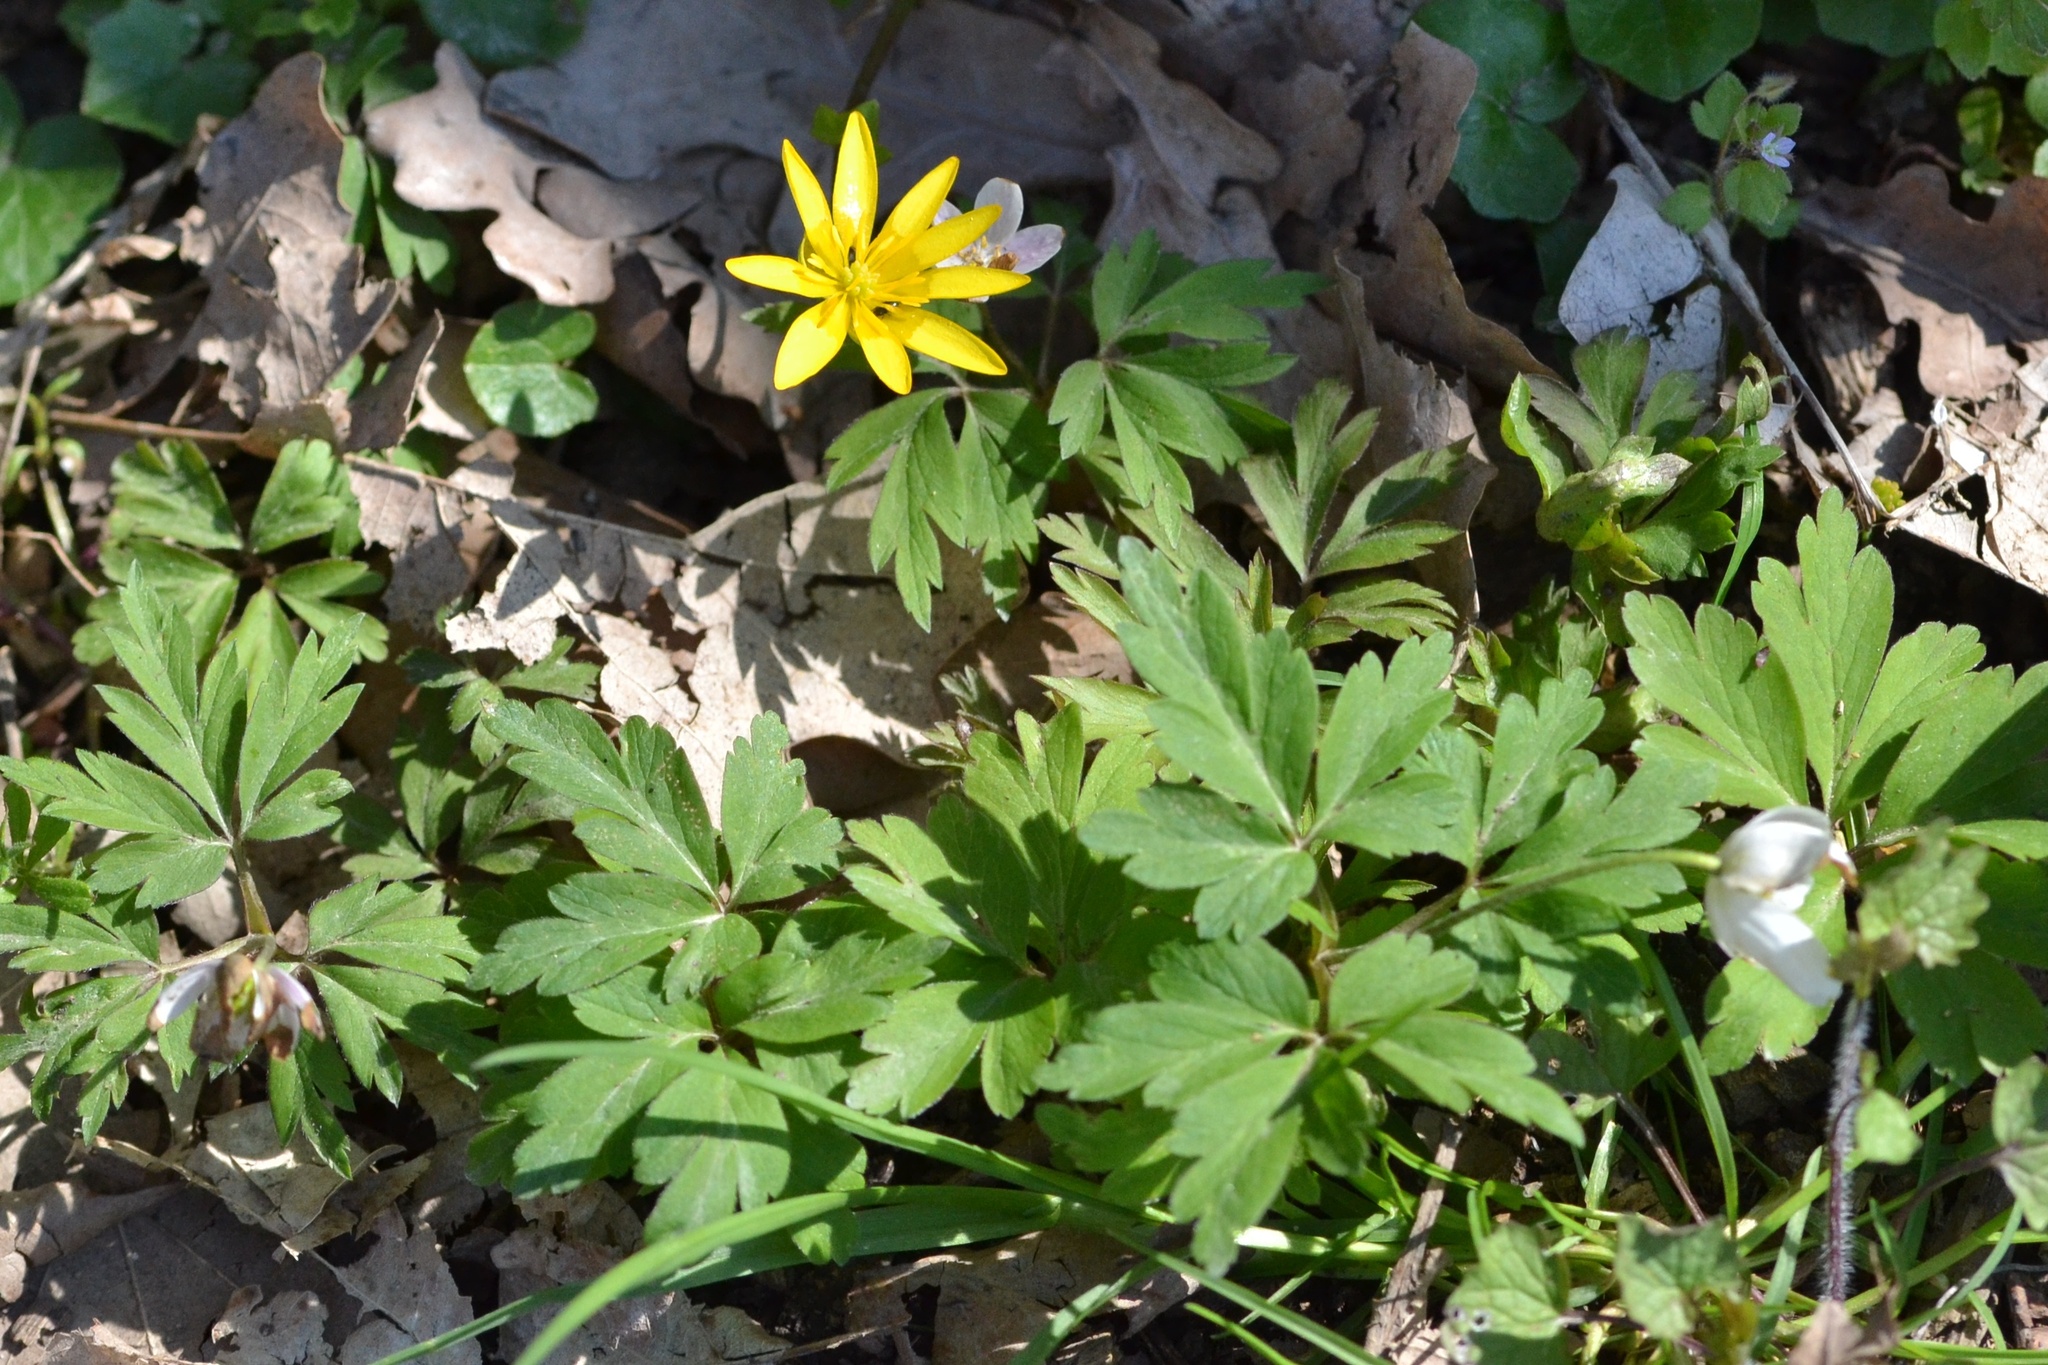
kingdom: Plantae
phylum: Tracheophyta
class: Magnoliopsida
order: Ranunculales
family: Ranunculaceae
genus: Ficaria
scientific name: Ficaria verna
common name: Lesser celandine
